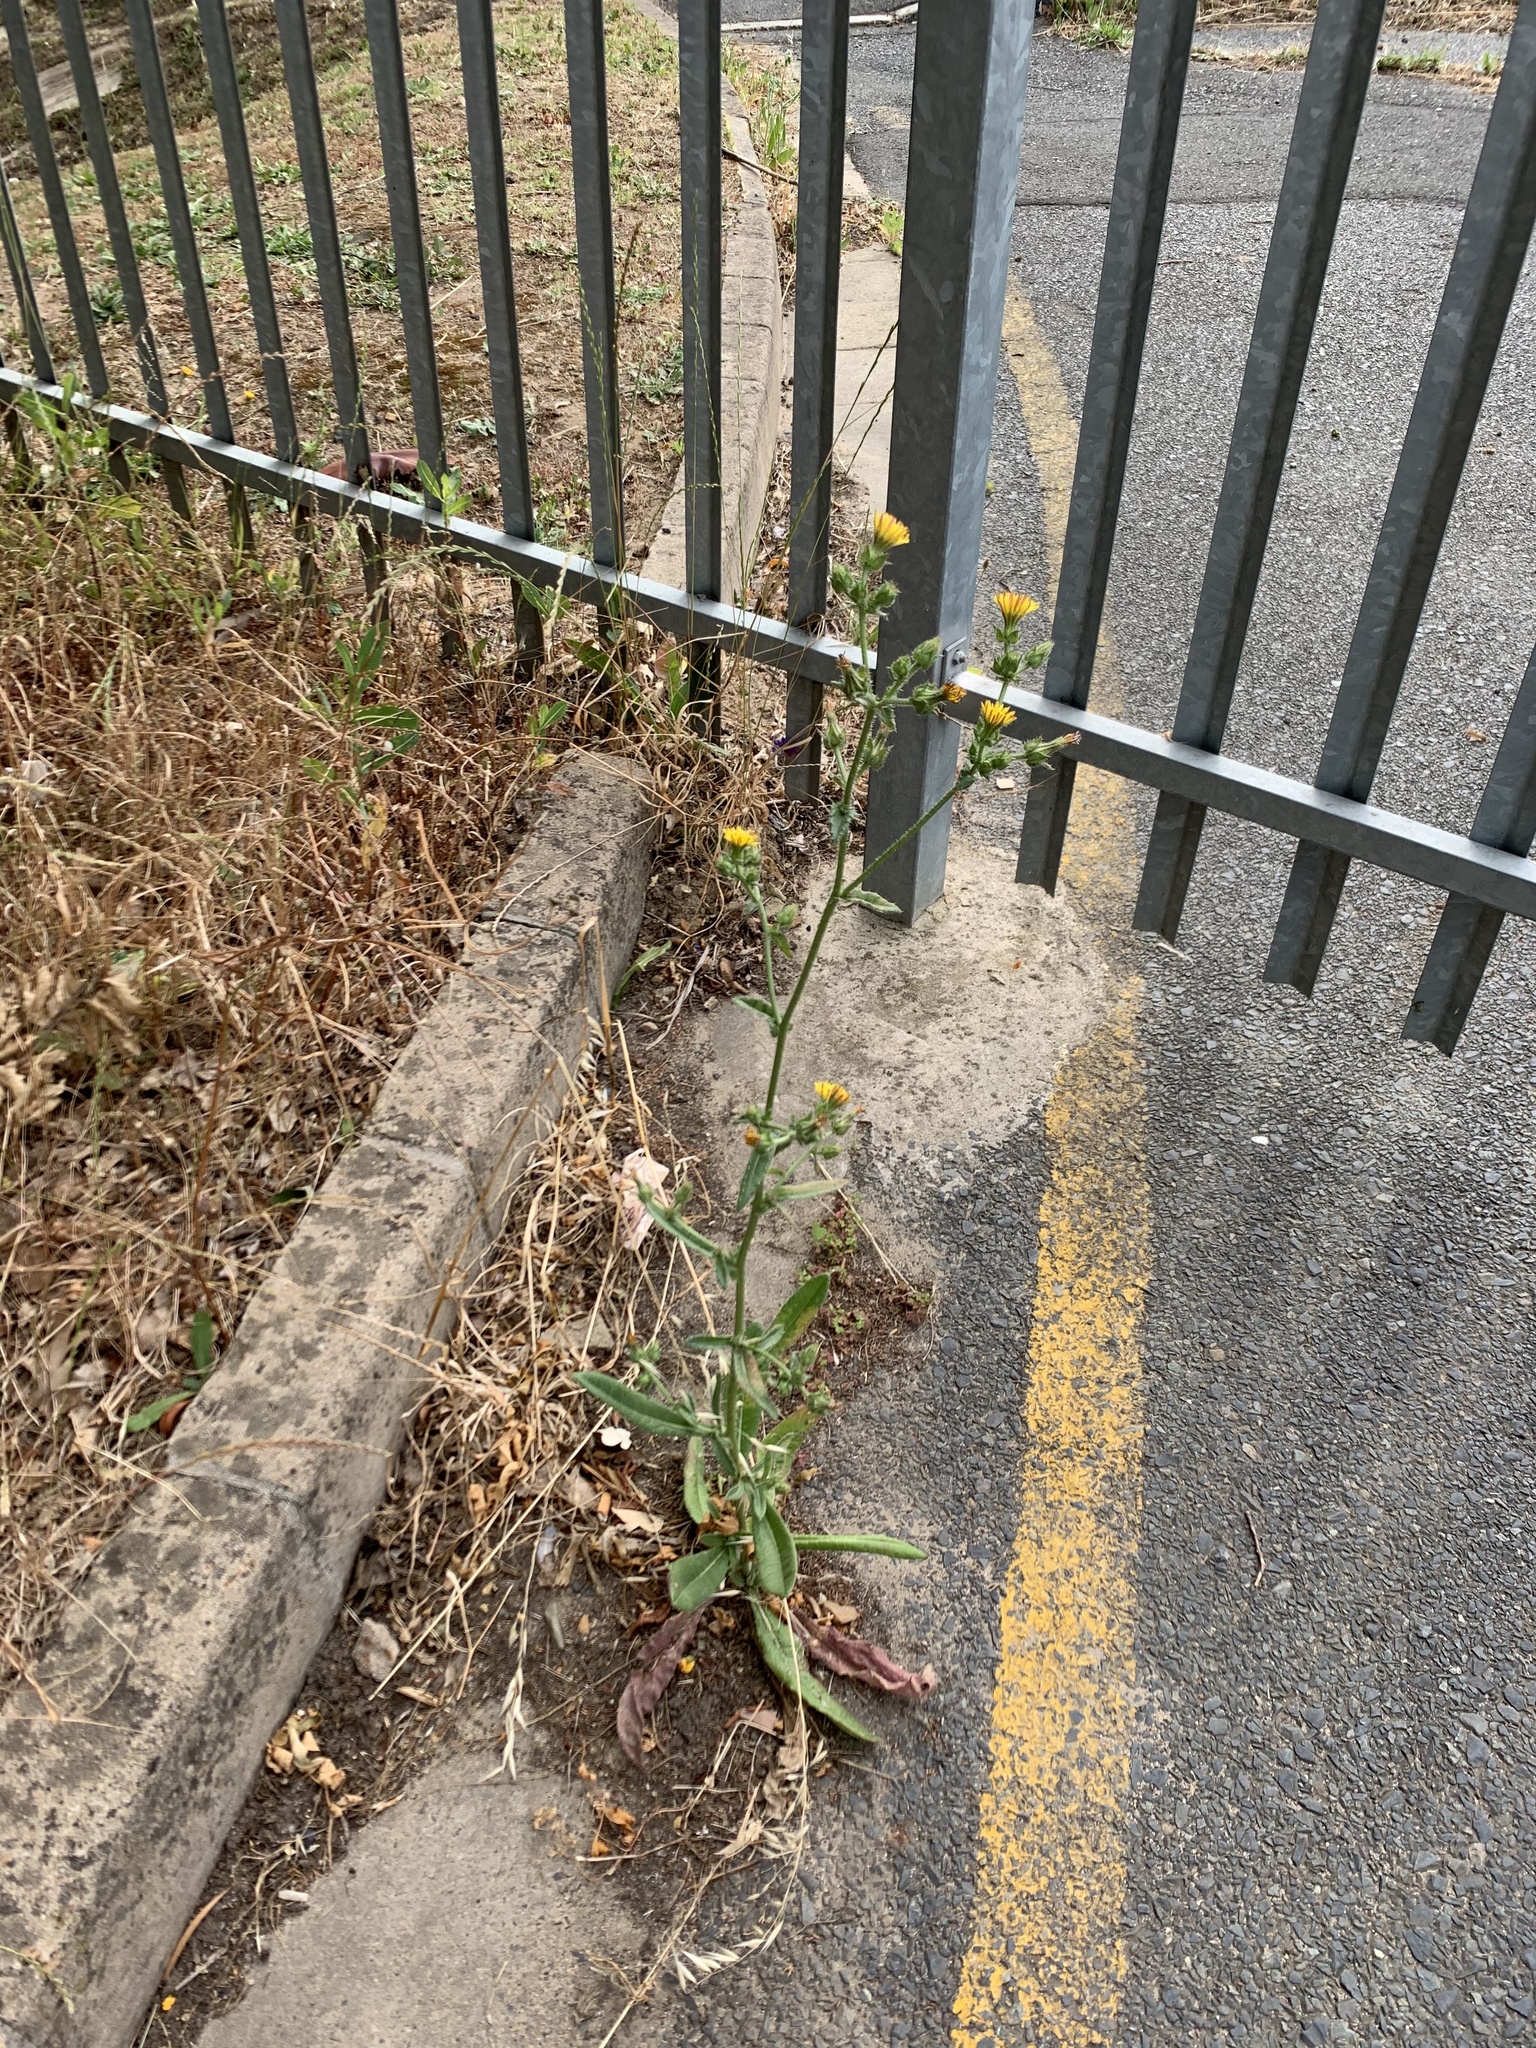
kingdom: Plantae
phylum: Tracheophyta
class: Magnoliopsida
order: Asterales
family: Asteraceae
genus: Helminthotheca
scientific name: Helminthotheca echioides
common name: Ox-tongue
